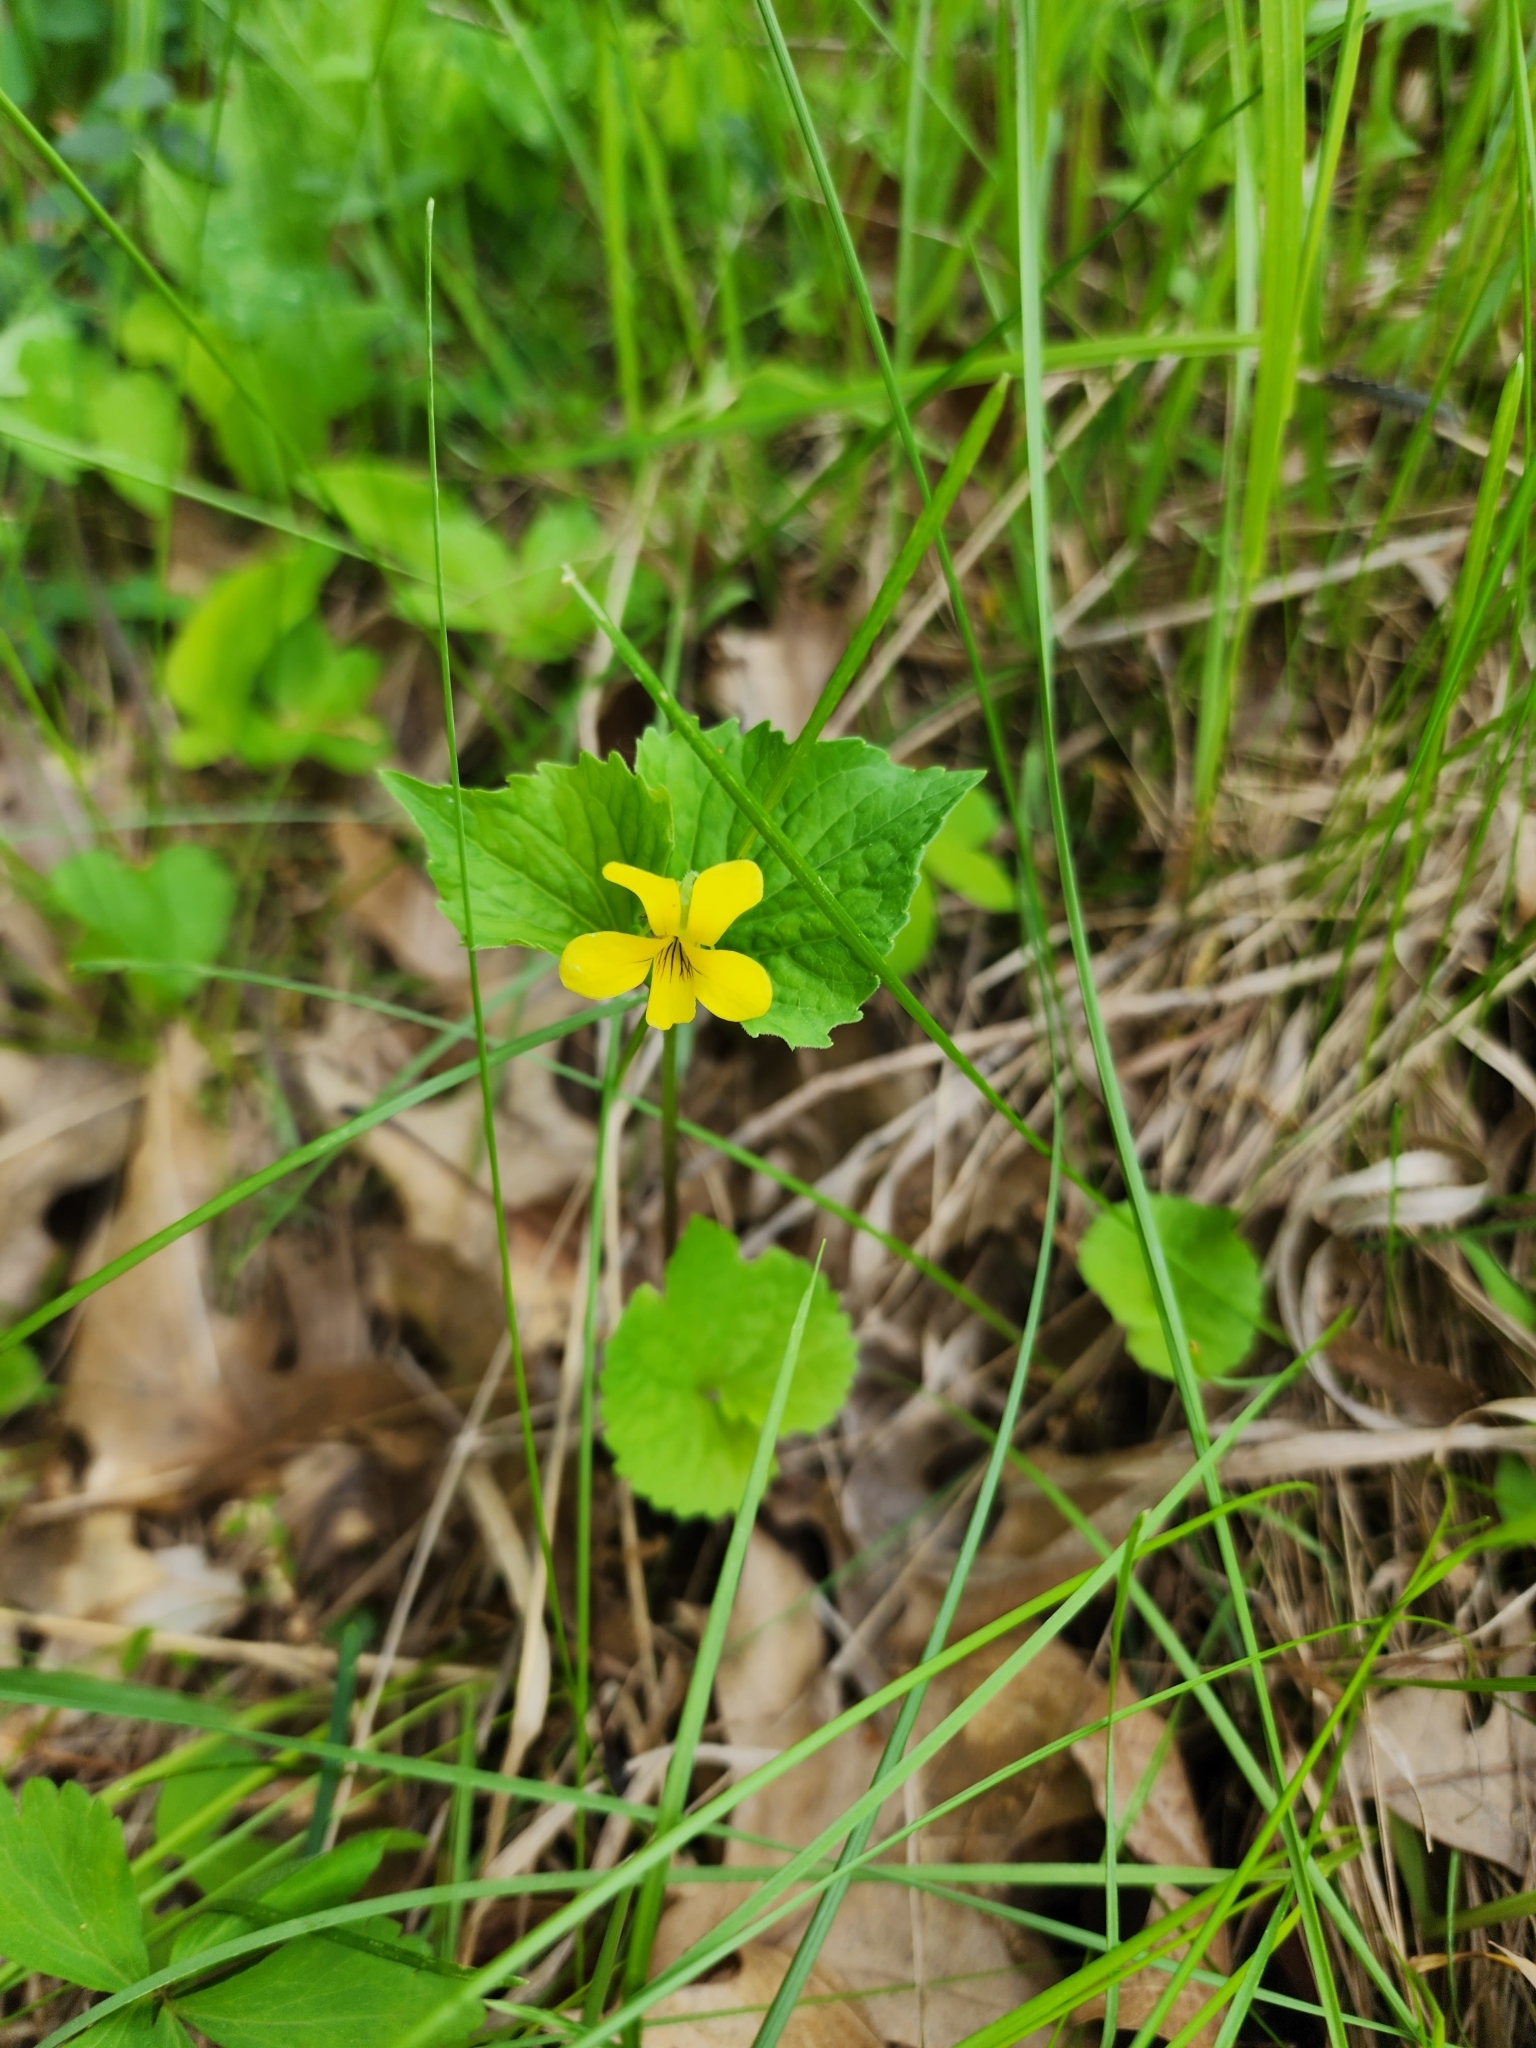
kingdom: Plantae
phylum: Tracheophyta
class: Magnoliopsida
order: Malpighiales
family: Violaceae
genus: Viola
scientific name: Viola eriocarpa
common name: Smooth yellow violet
